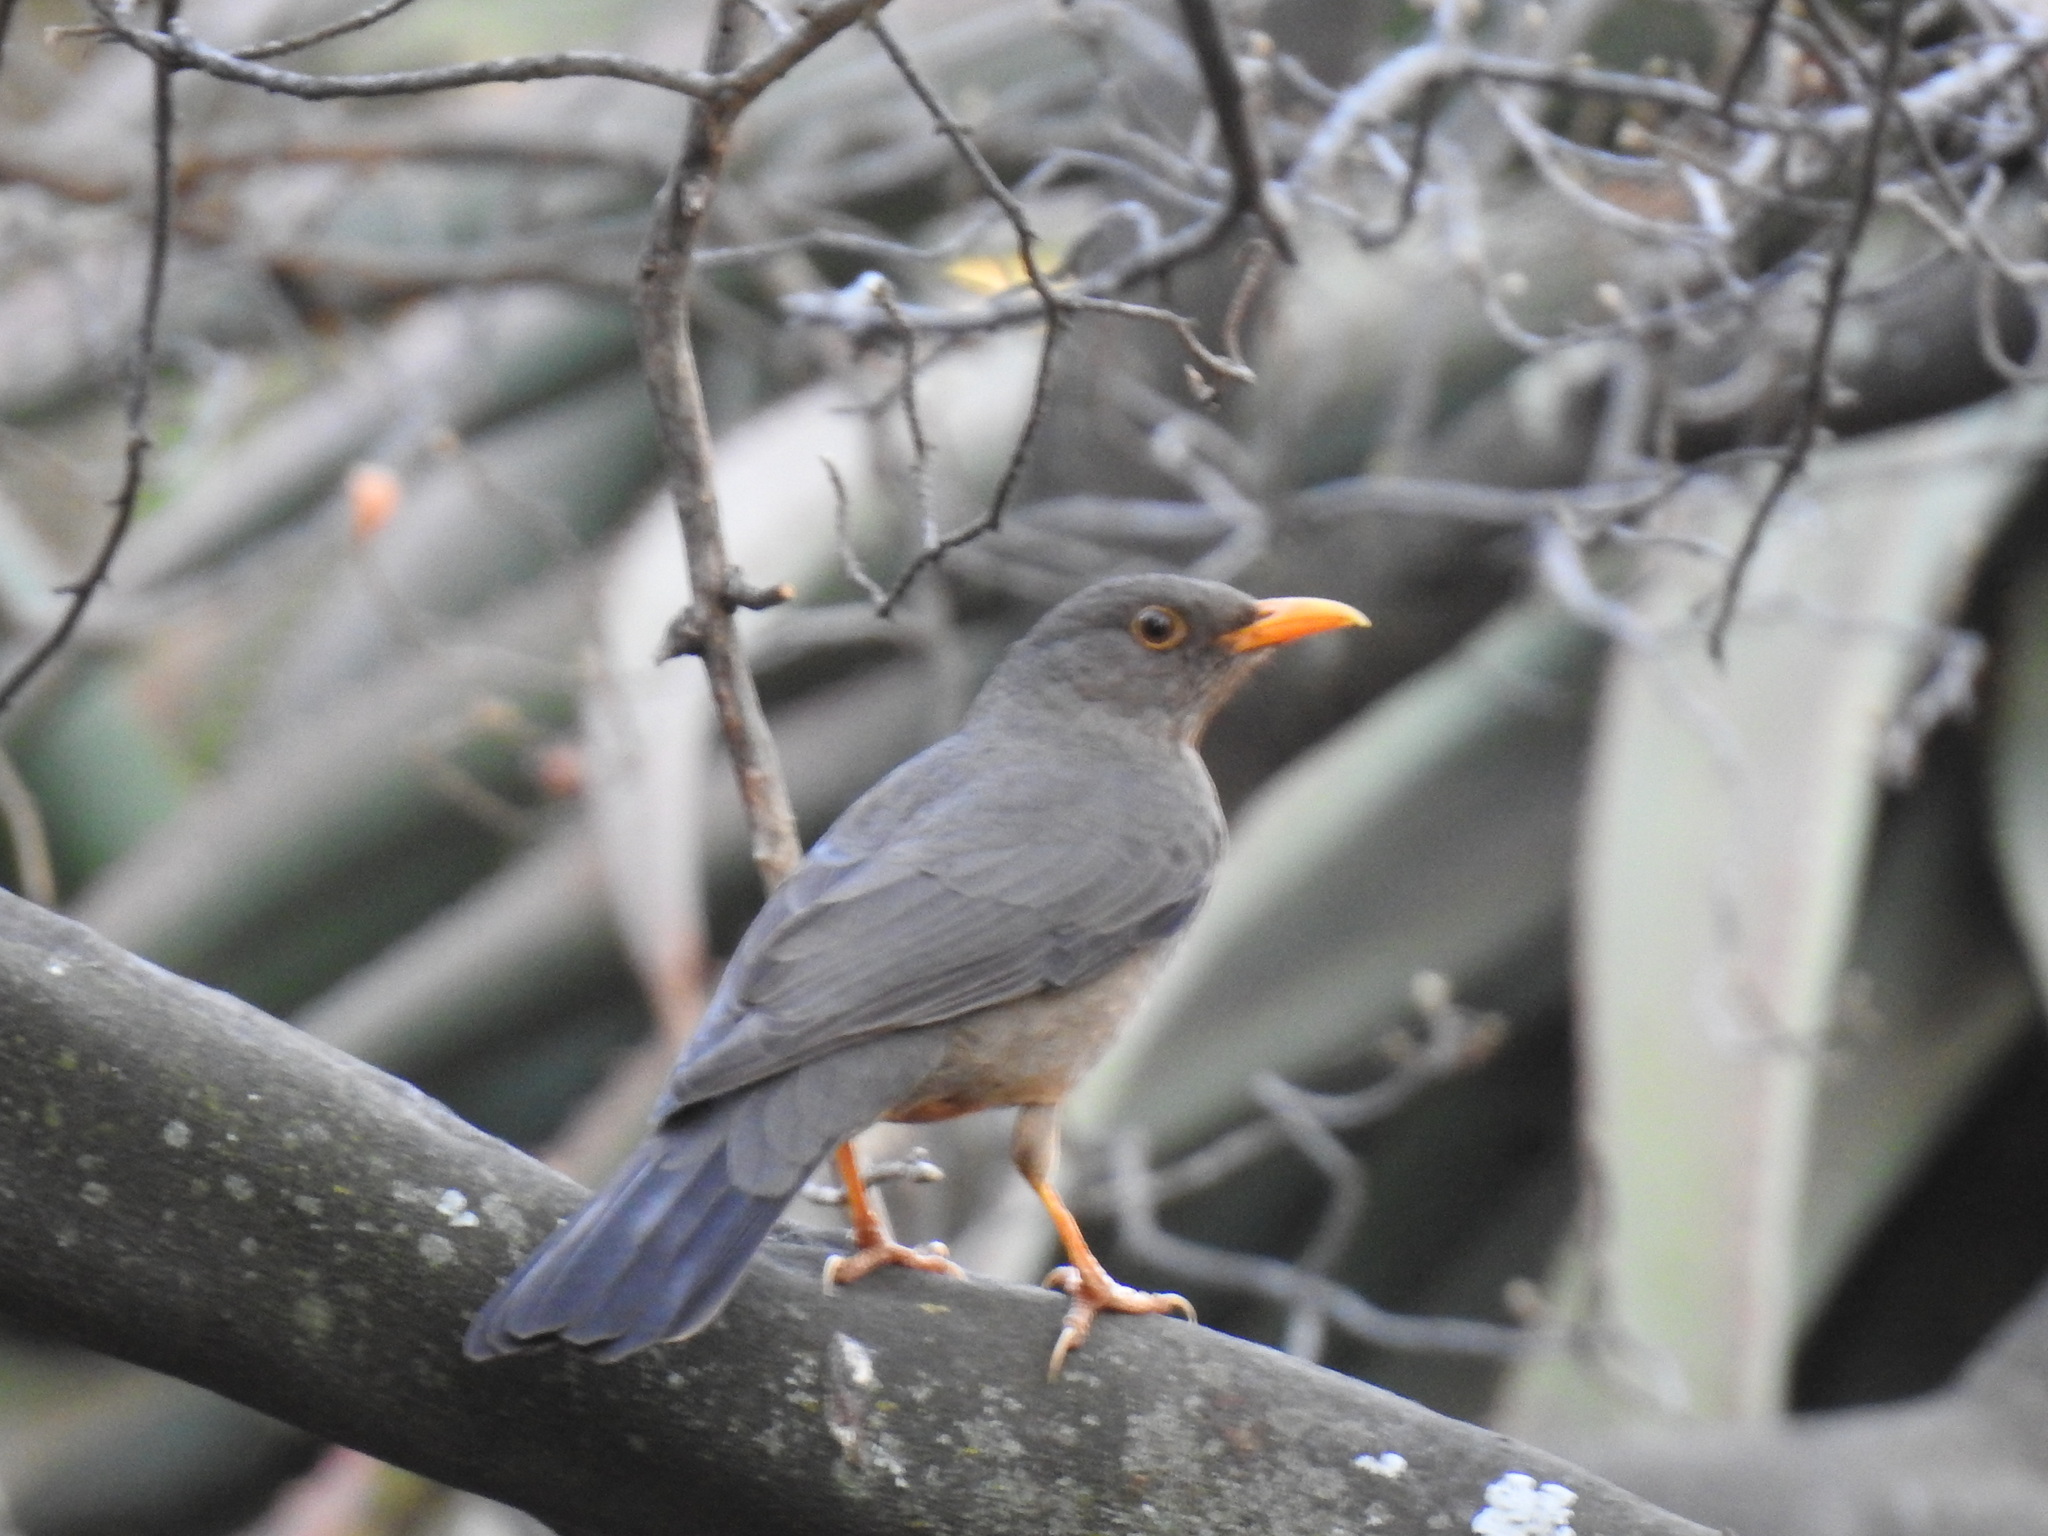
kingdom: Animalia
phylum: Chordata
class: Aves
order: Passeriformes
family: Turdidae
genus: Turdus
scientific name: Turdus smithi
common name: Karoo thrush
